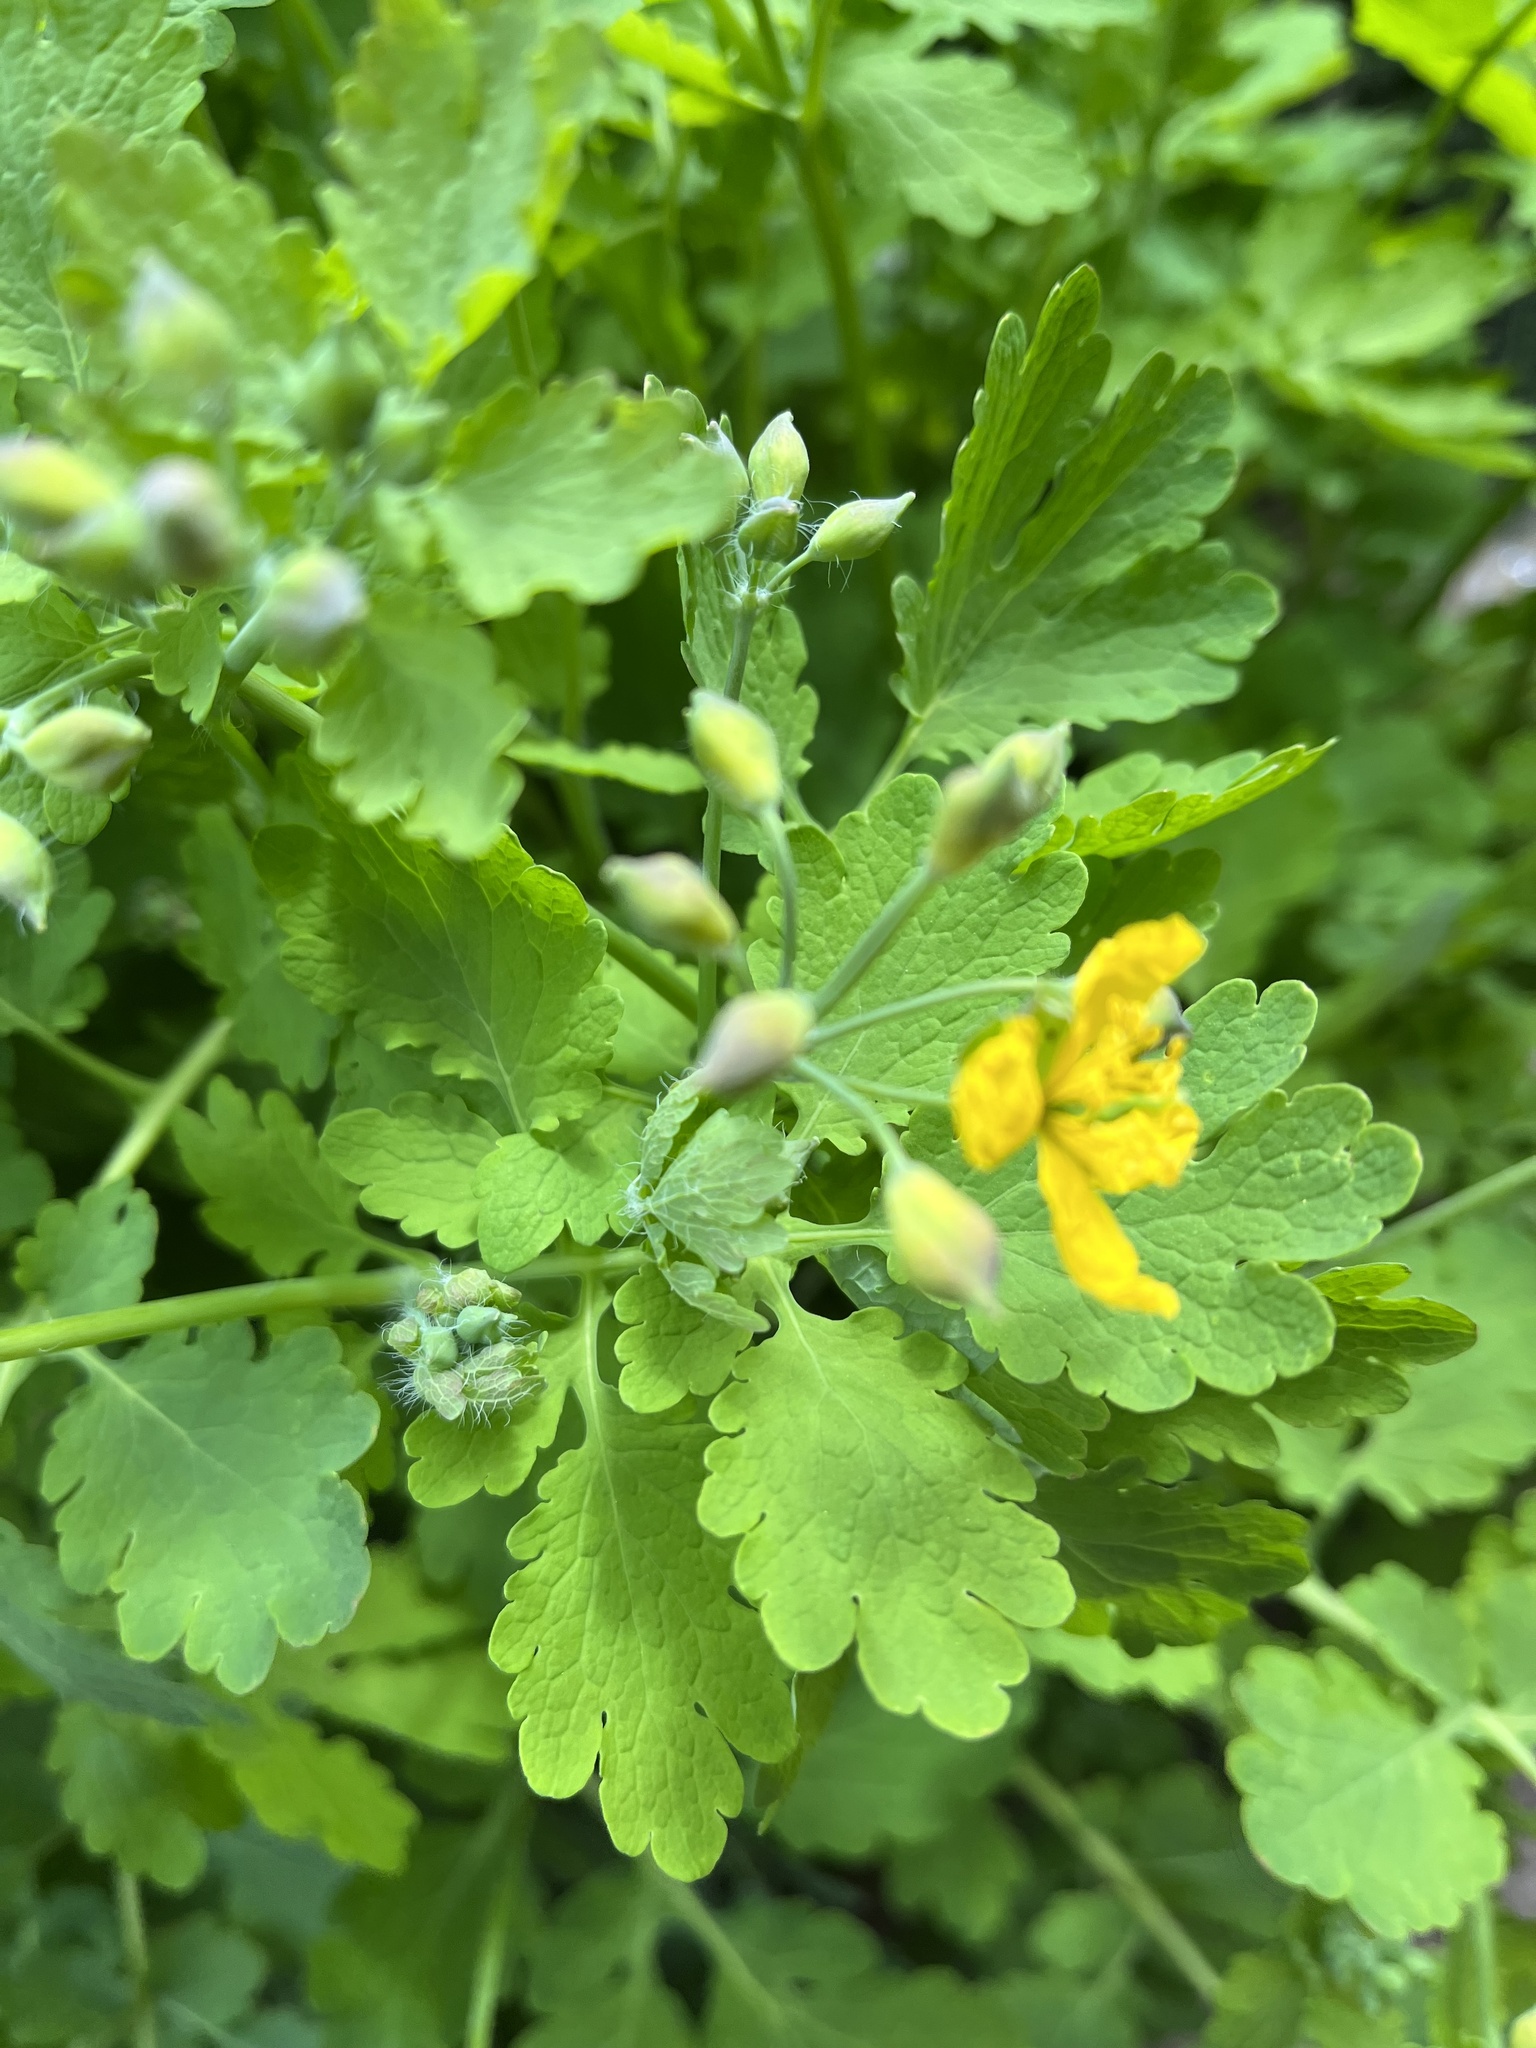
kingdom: Plantae
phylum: Tracheophyta
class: Magnoliopsida
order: Ranunculales
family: Papaveraceae
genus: Chelidonium
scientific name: Chelidonium majus
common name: Greater celandine
